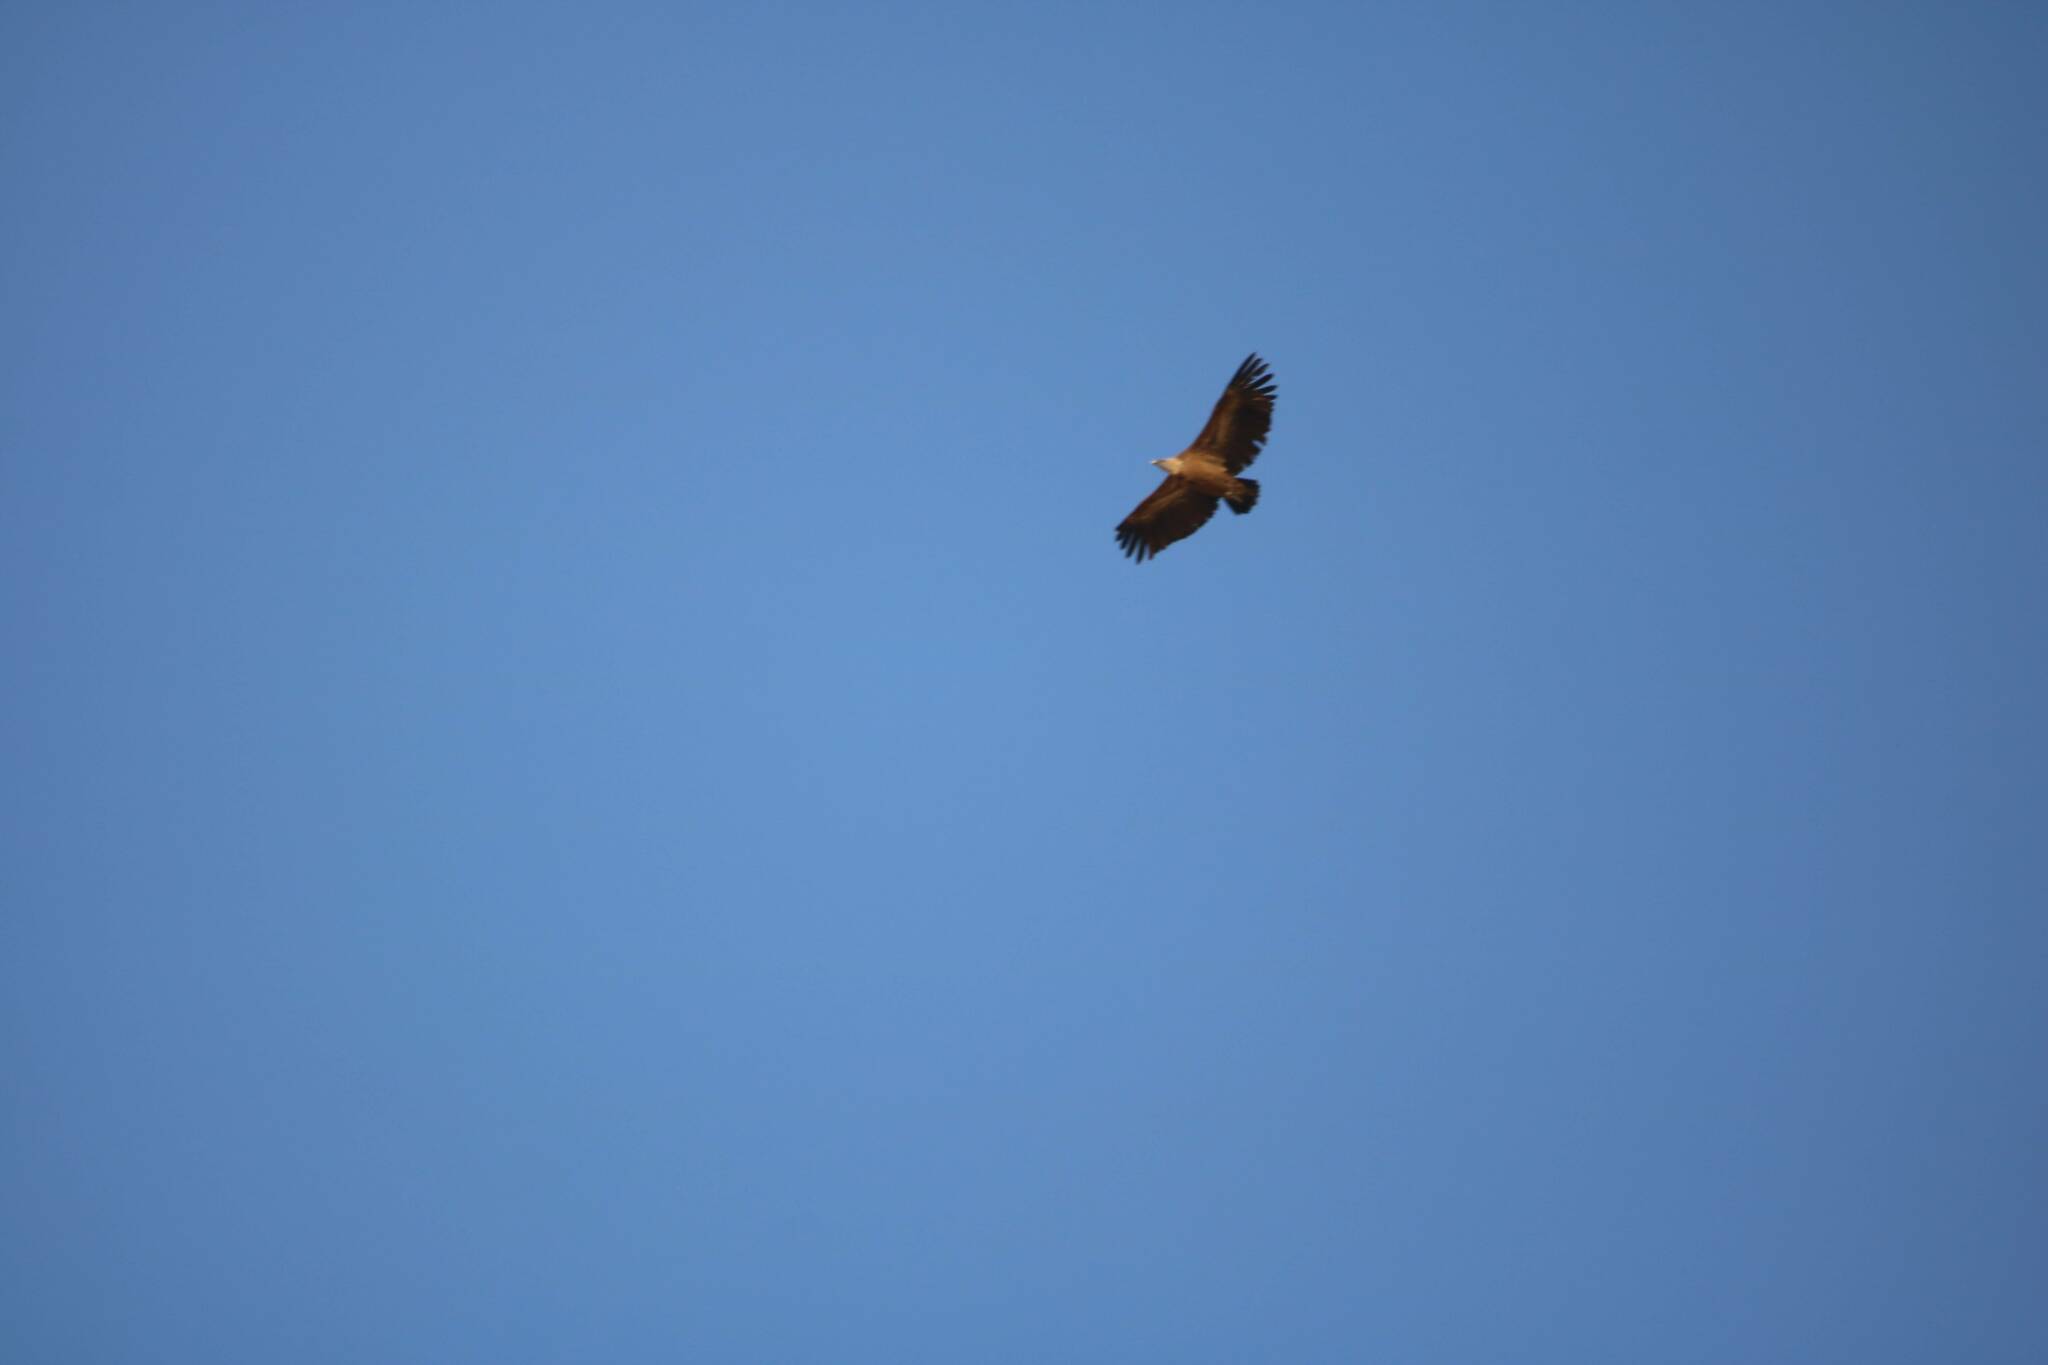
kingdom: Animalia
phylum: Chordata
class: Aves
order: Accipitriformes
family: Accipitridae
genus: Gyps
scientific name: Gyps fulvus
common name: Griffon vulture
